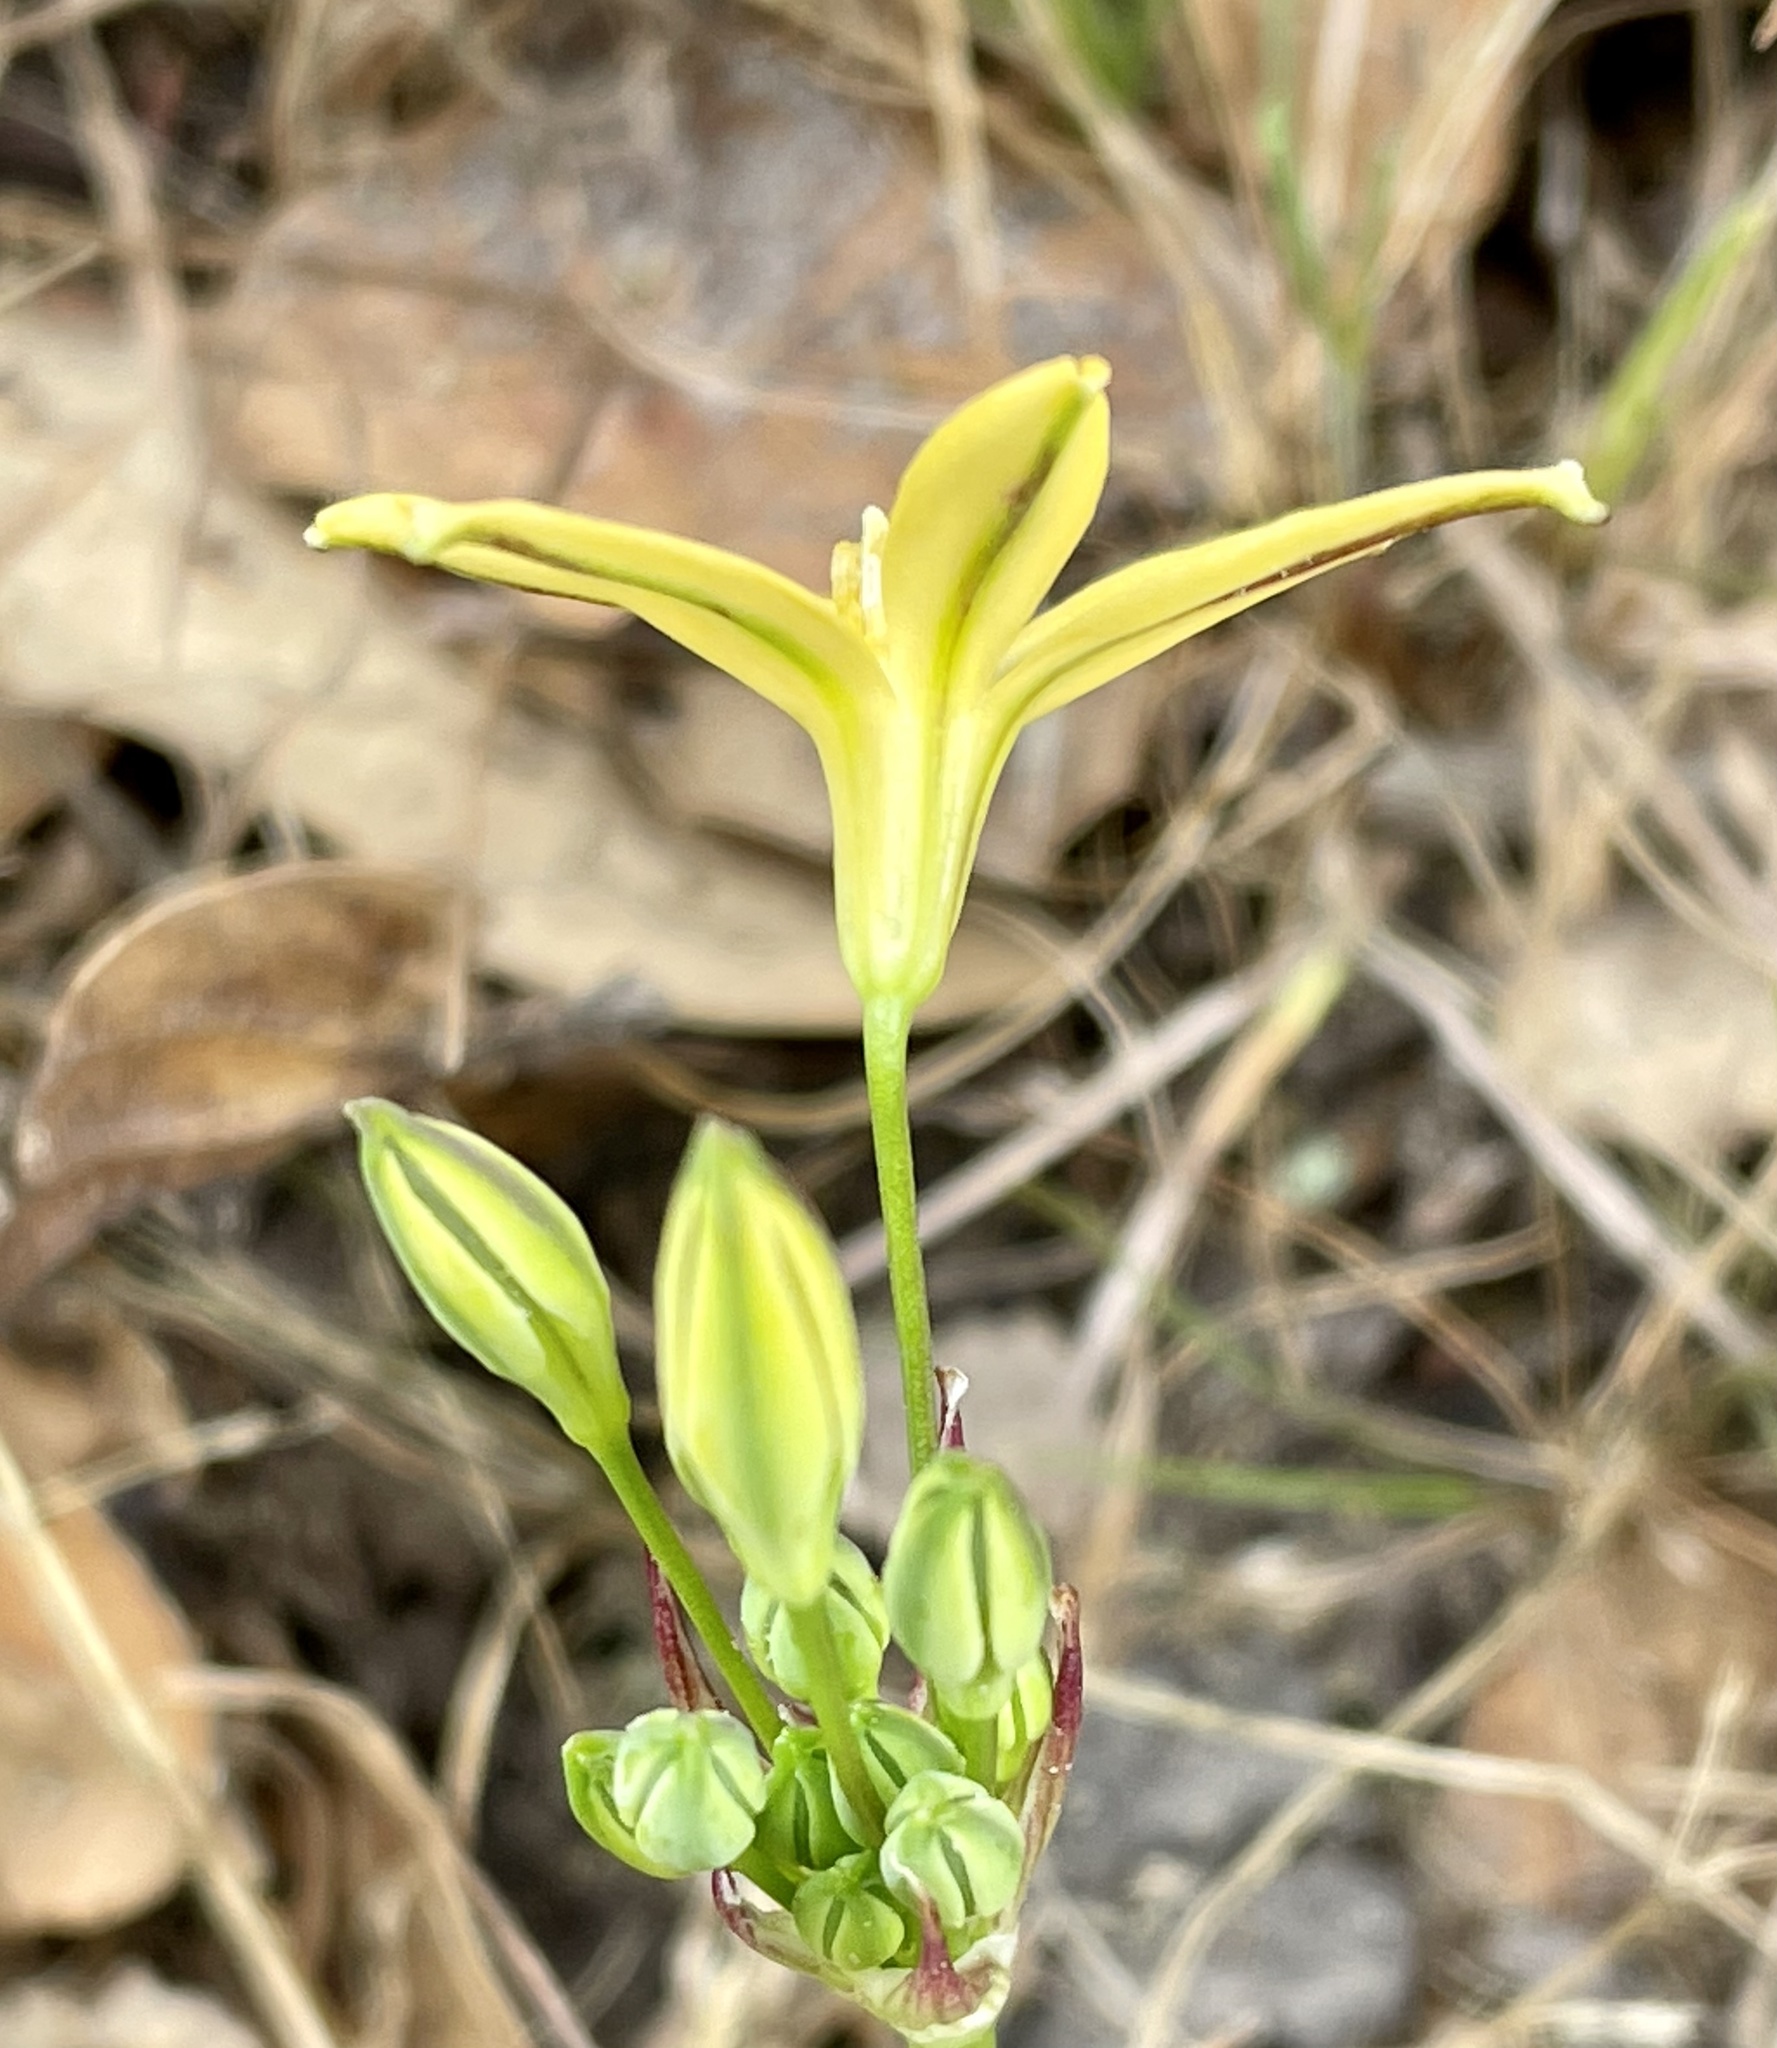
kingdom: Plantae
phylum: Tracheophyta
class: Liliopsida
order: Asparagales
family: Asparagaceae
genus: Triteleia
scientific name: Triteleia ixioides
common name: Yellow-brodiaea
